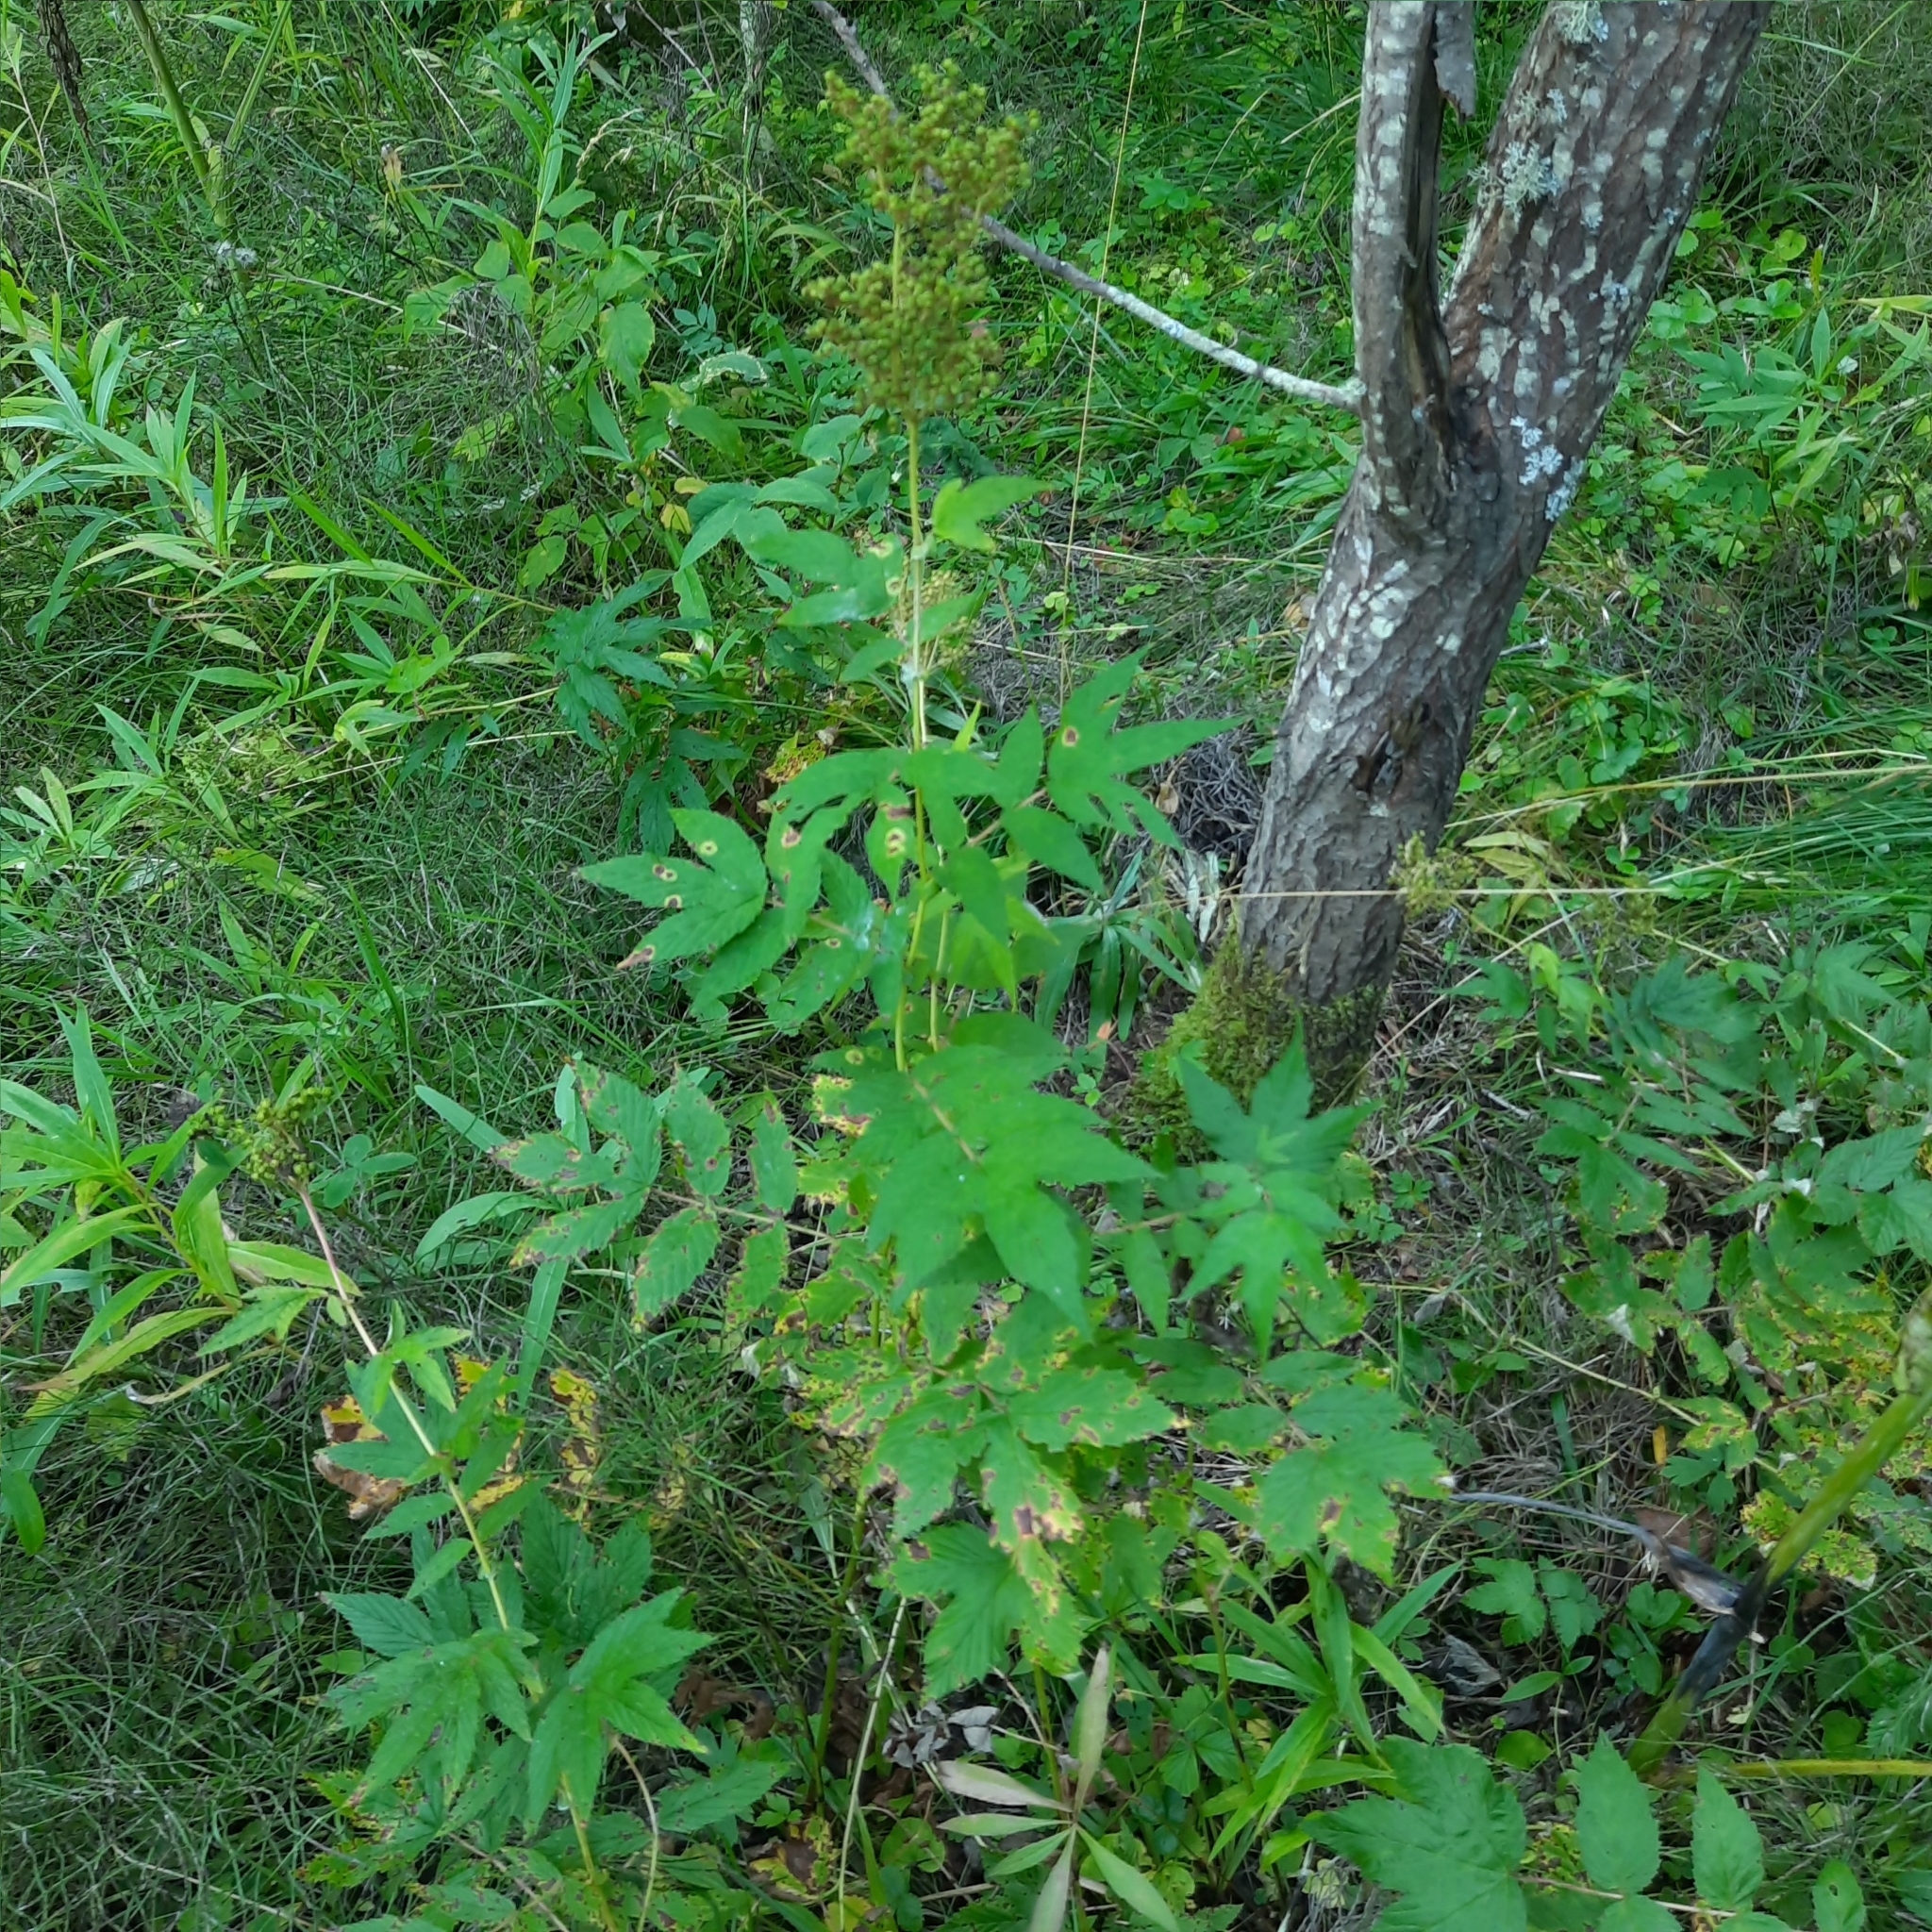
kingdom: Plantae
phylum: Tracheophyta
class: Magnoliopsida
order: Rosales
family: Rosaceae
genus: Filipendula
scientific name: Filipendula ulmaria
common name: Meadowsweet
